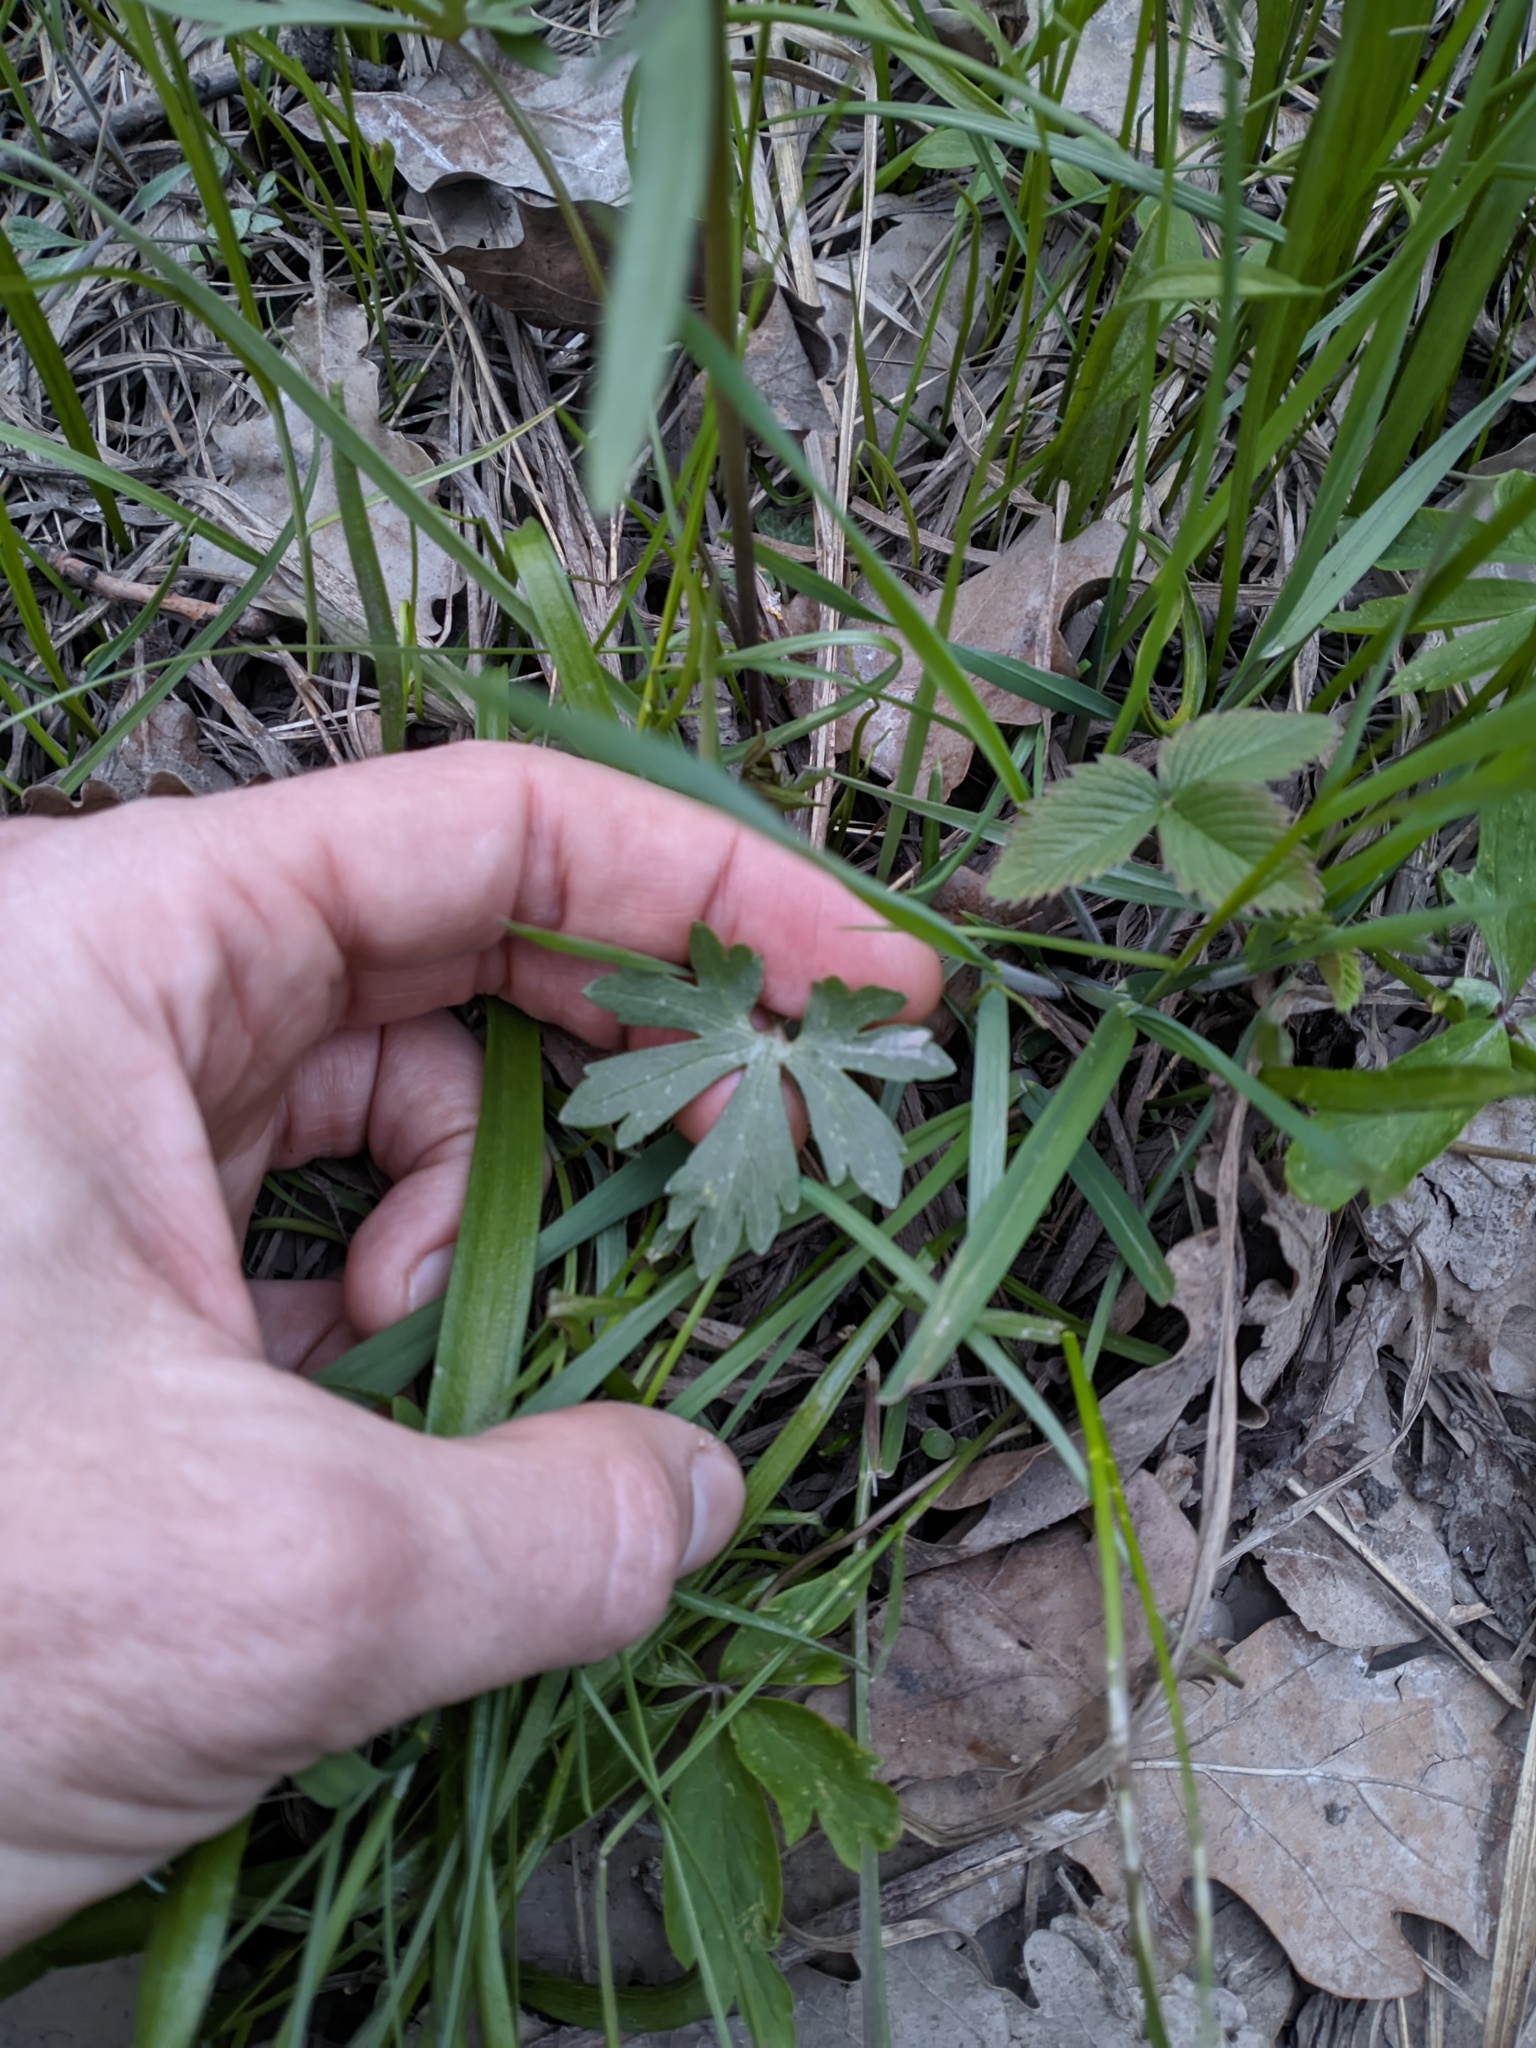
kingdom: Plantae
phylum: Tracheophyta
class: Magnoliopsida
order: Ranunculales
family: Ranunculaceae
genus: Ranunculus
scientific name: Ranunculus auricomus
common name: Goldilocks buttercup
